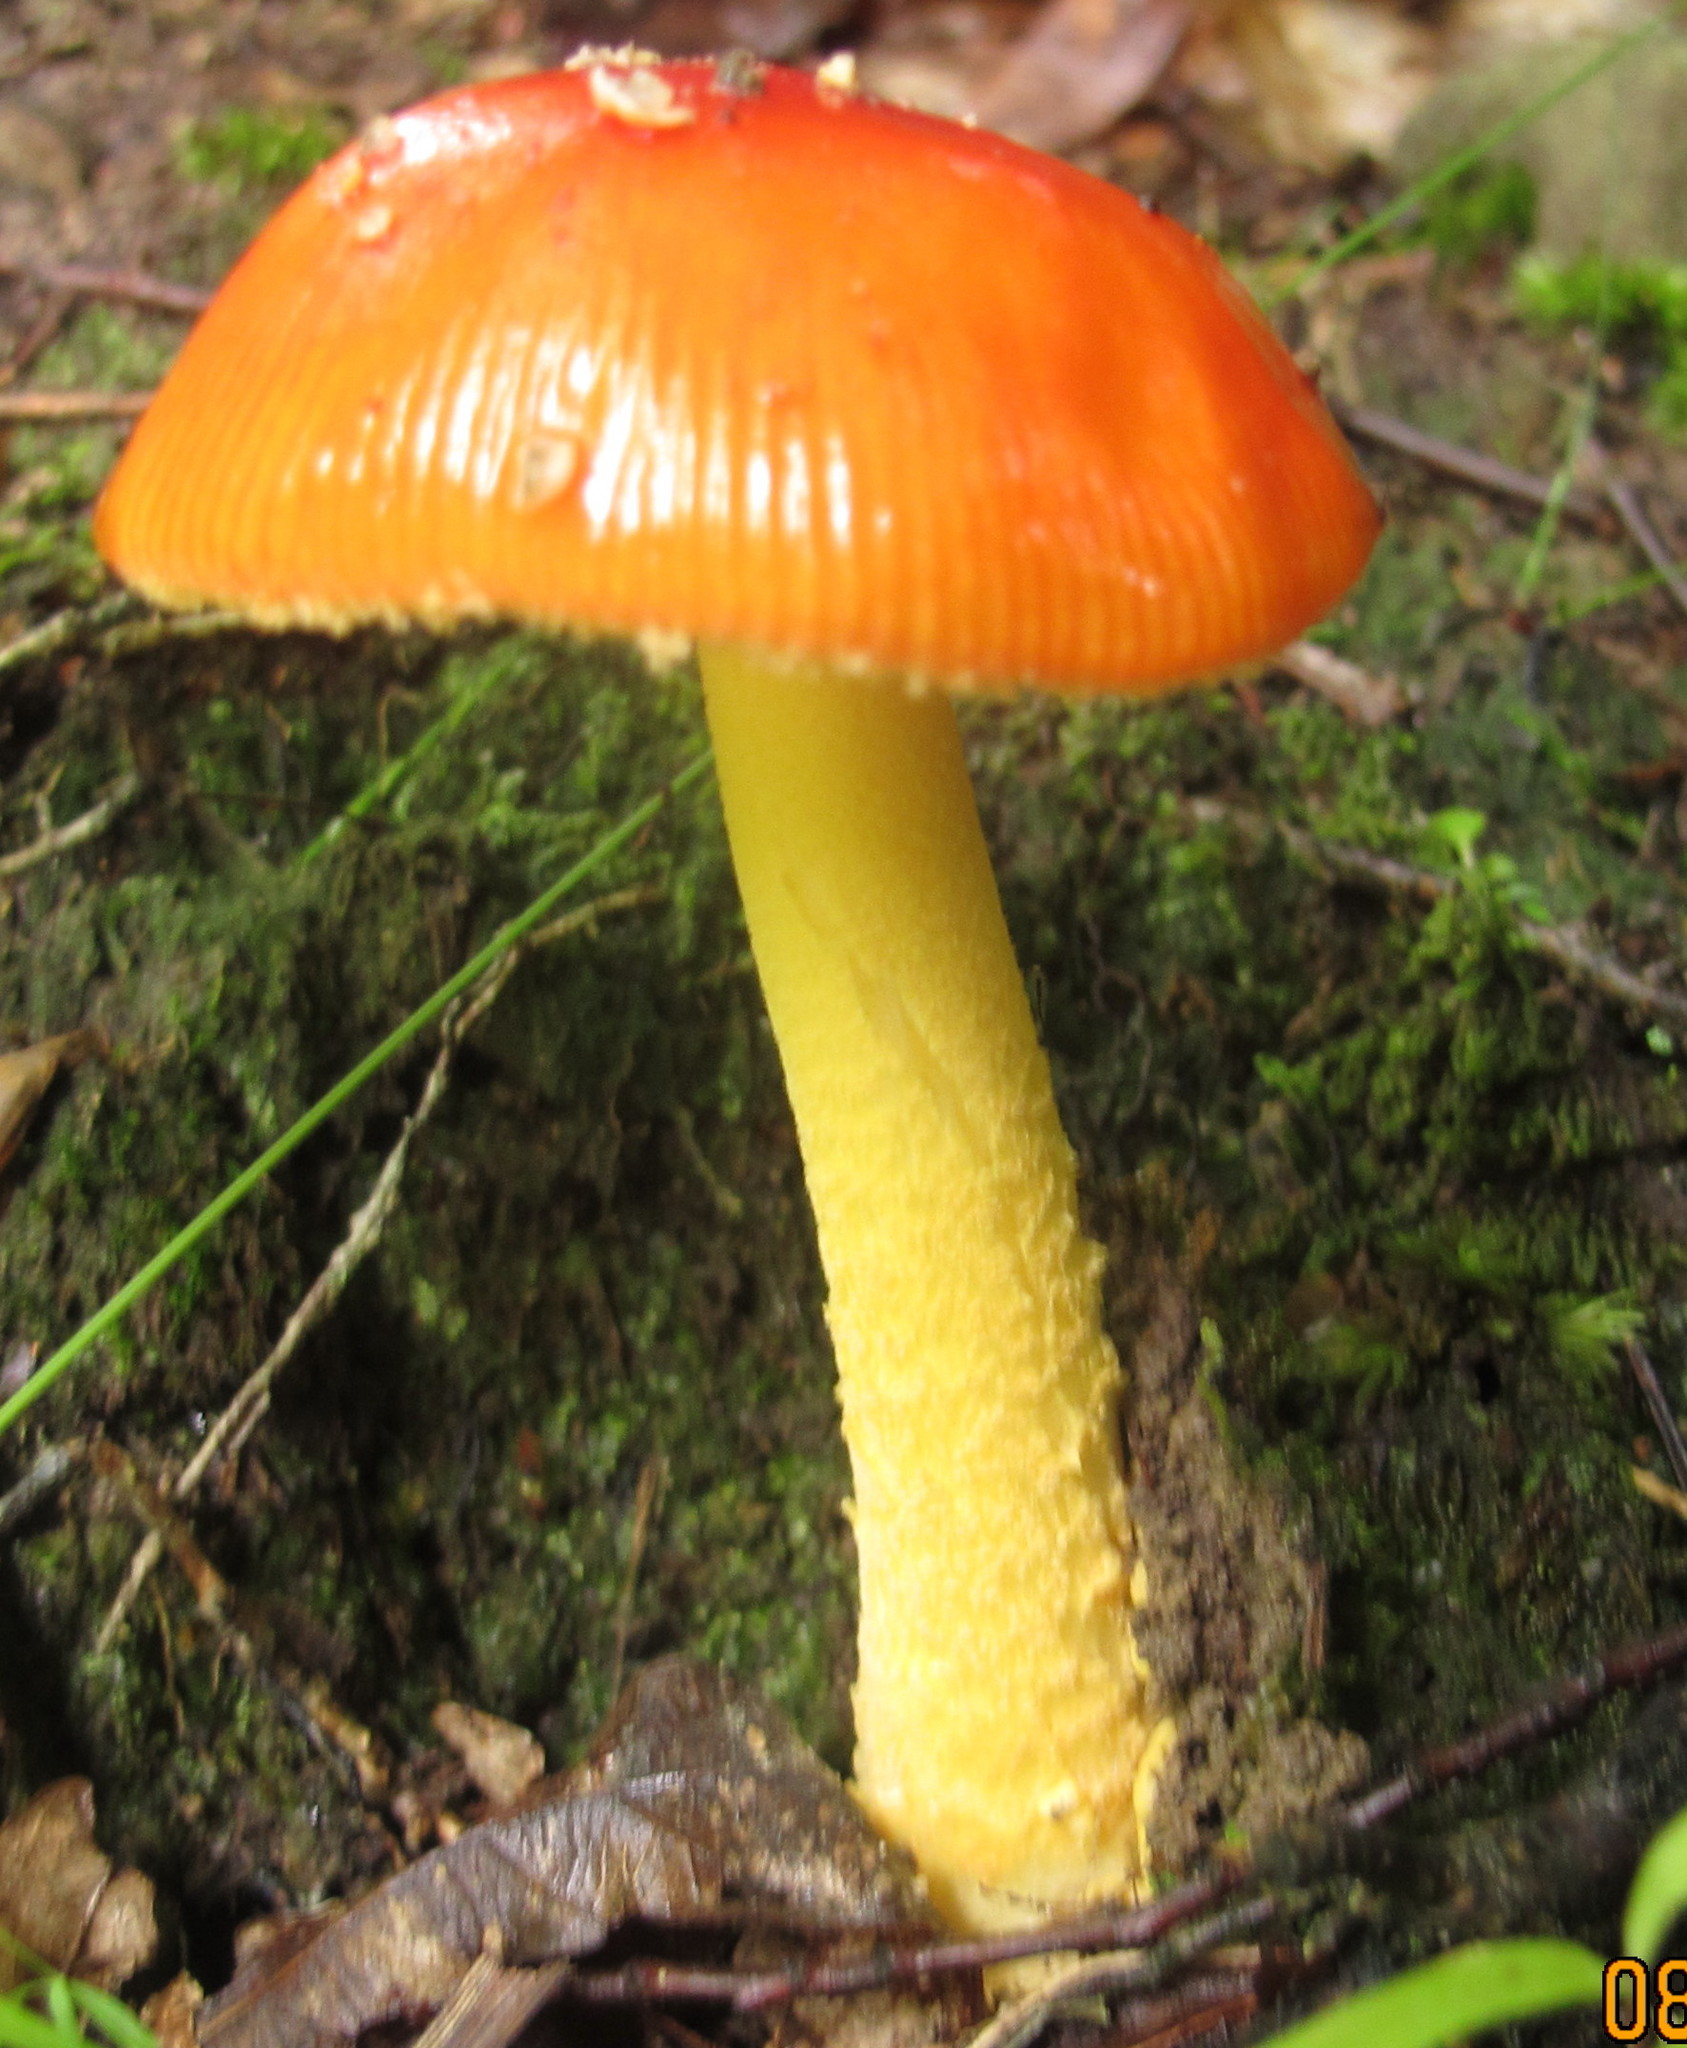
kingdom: Fungi
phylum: Basidiomycota
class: Agaricomycetes
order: Agaricales
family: Amanitaceae
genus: Amanita
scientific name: Amanita parcivolvata
